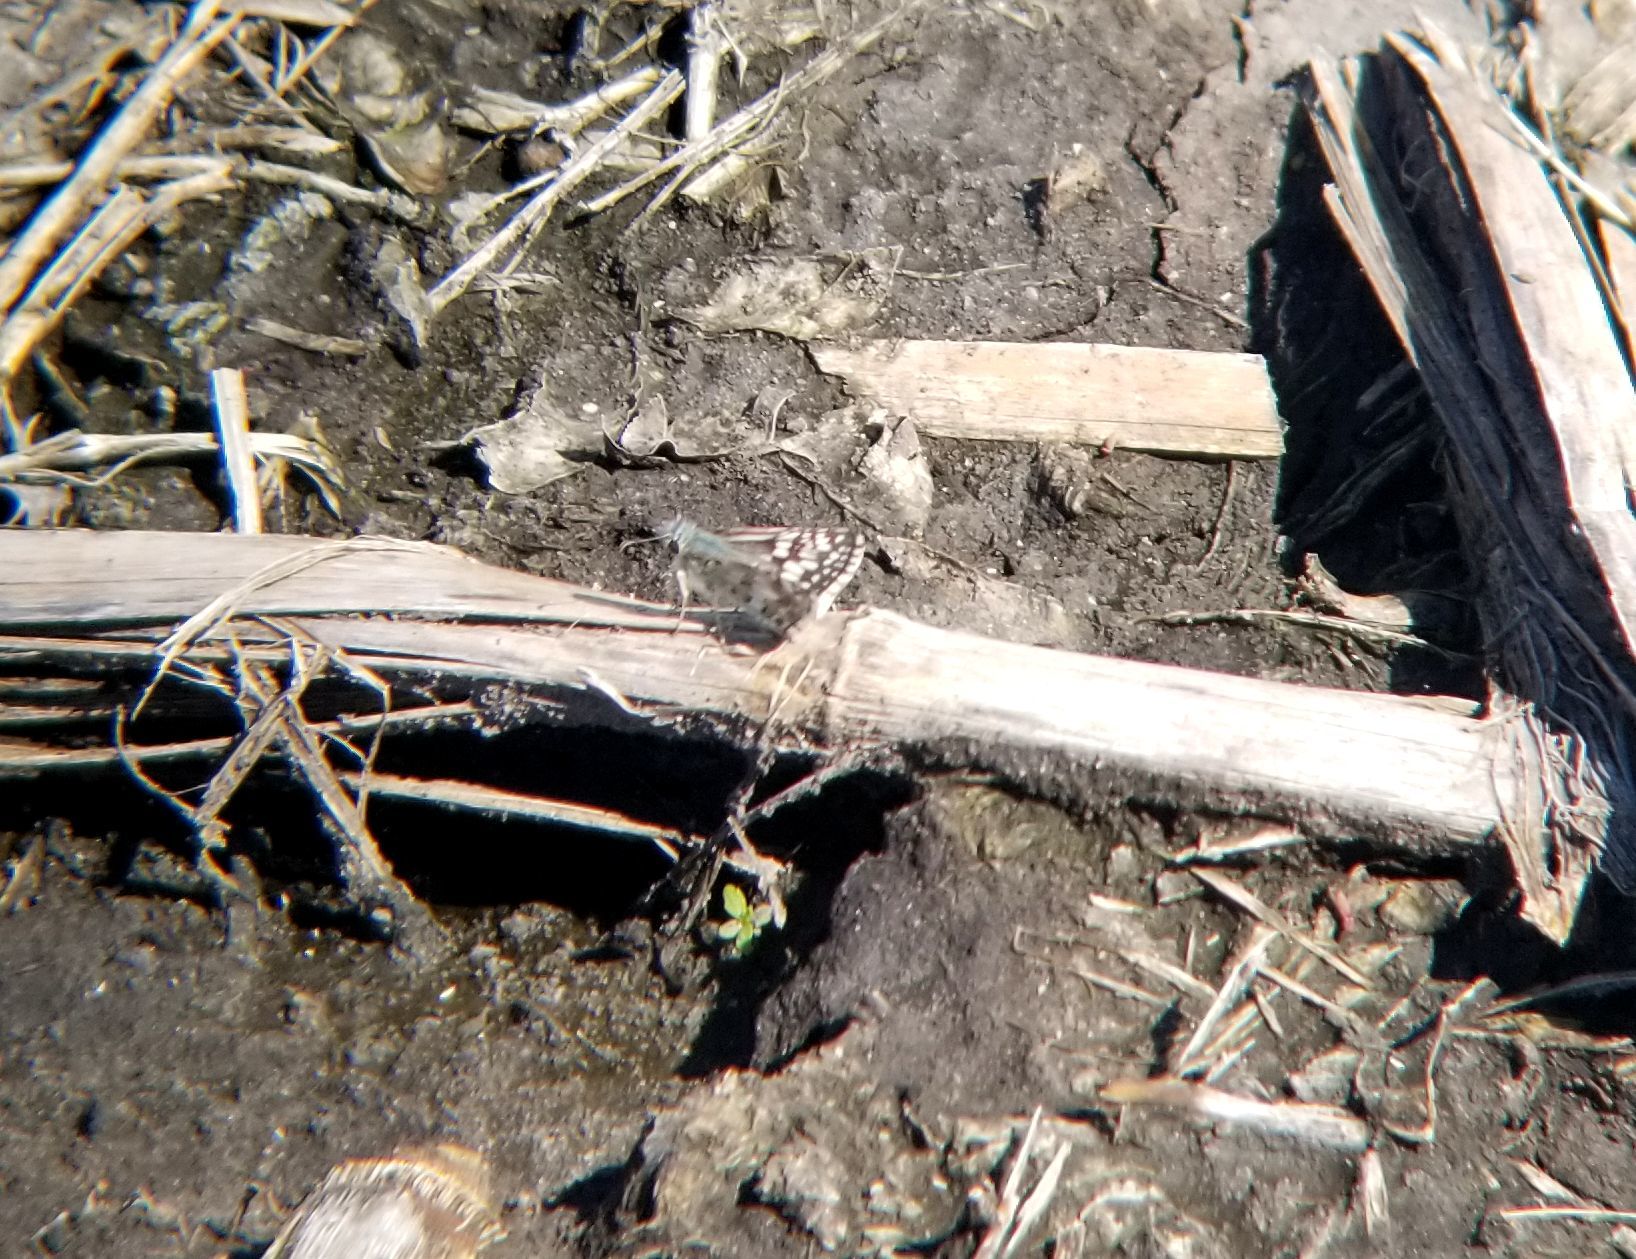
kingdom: Animalia
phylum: Arthropoda
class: Insecta
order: Lepidoptera
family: Hesperiidae
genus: Burnsius
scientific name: Burnsius communis
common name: Common checkered-skipper
